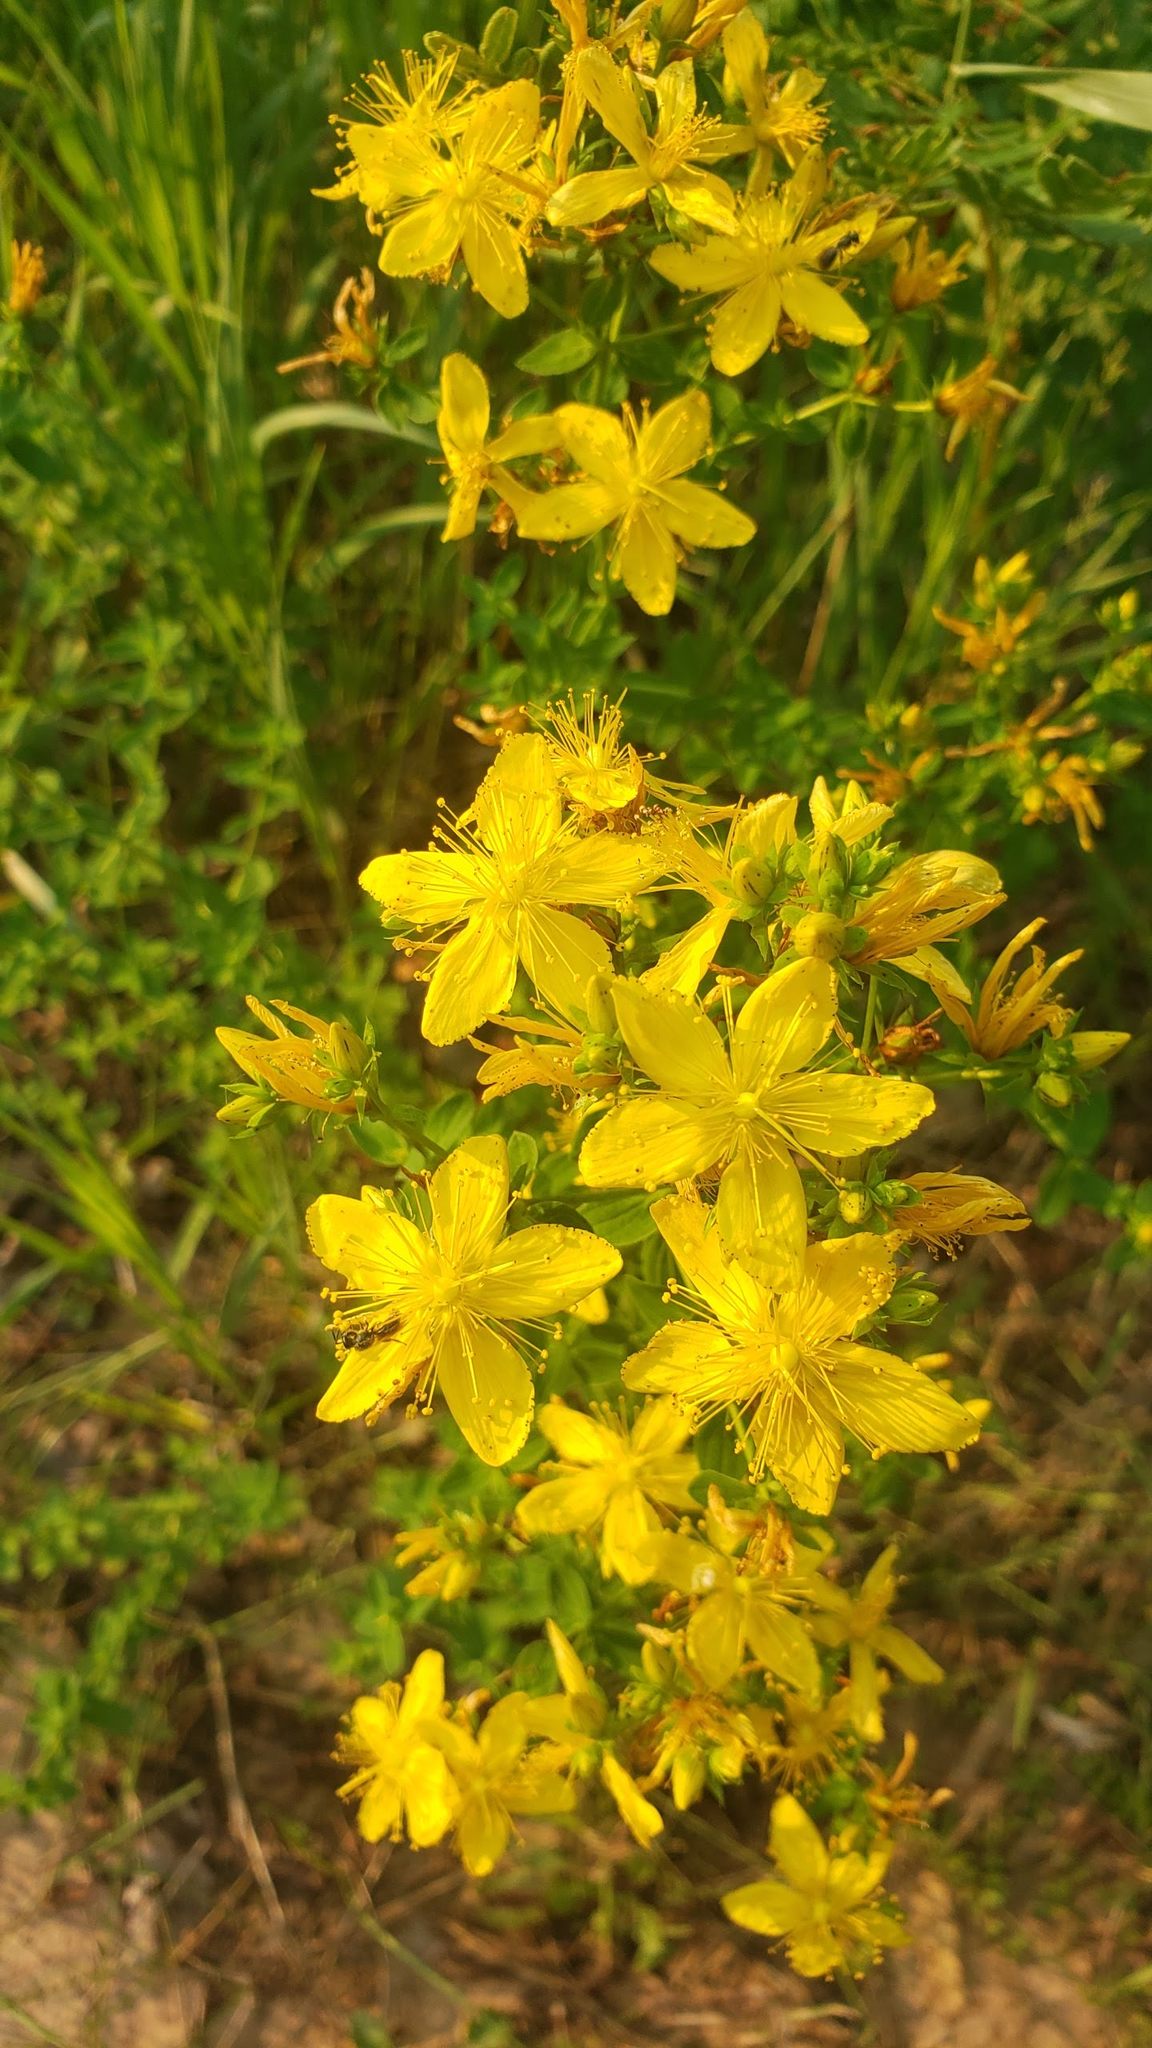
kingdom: Plantae
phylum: Tracheophyta
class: Magnoliopsida
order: Malpighiales
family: Hypericaceae
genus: Hypericum
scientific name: Hypericum perforatum
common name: Common st. johnswort
